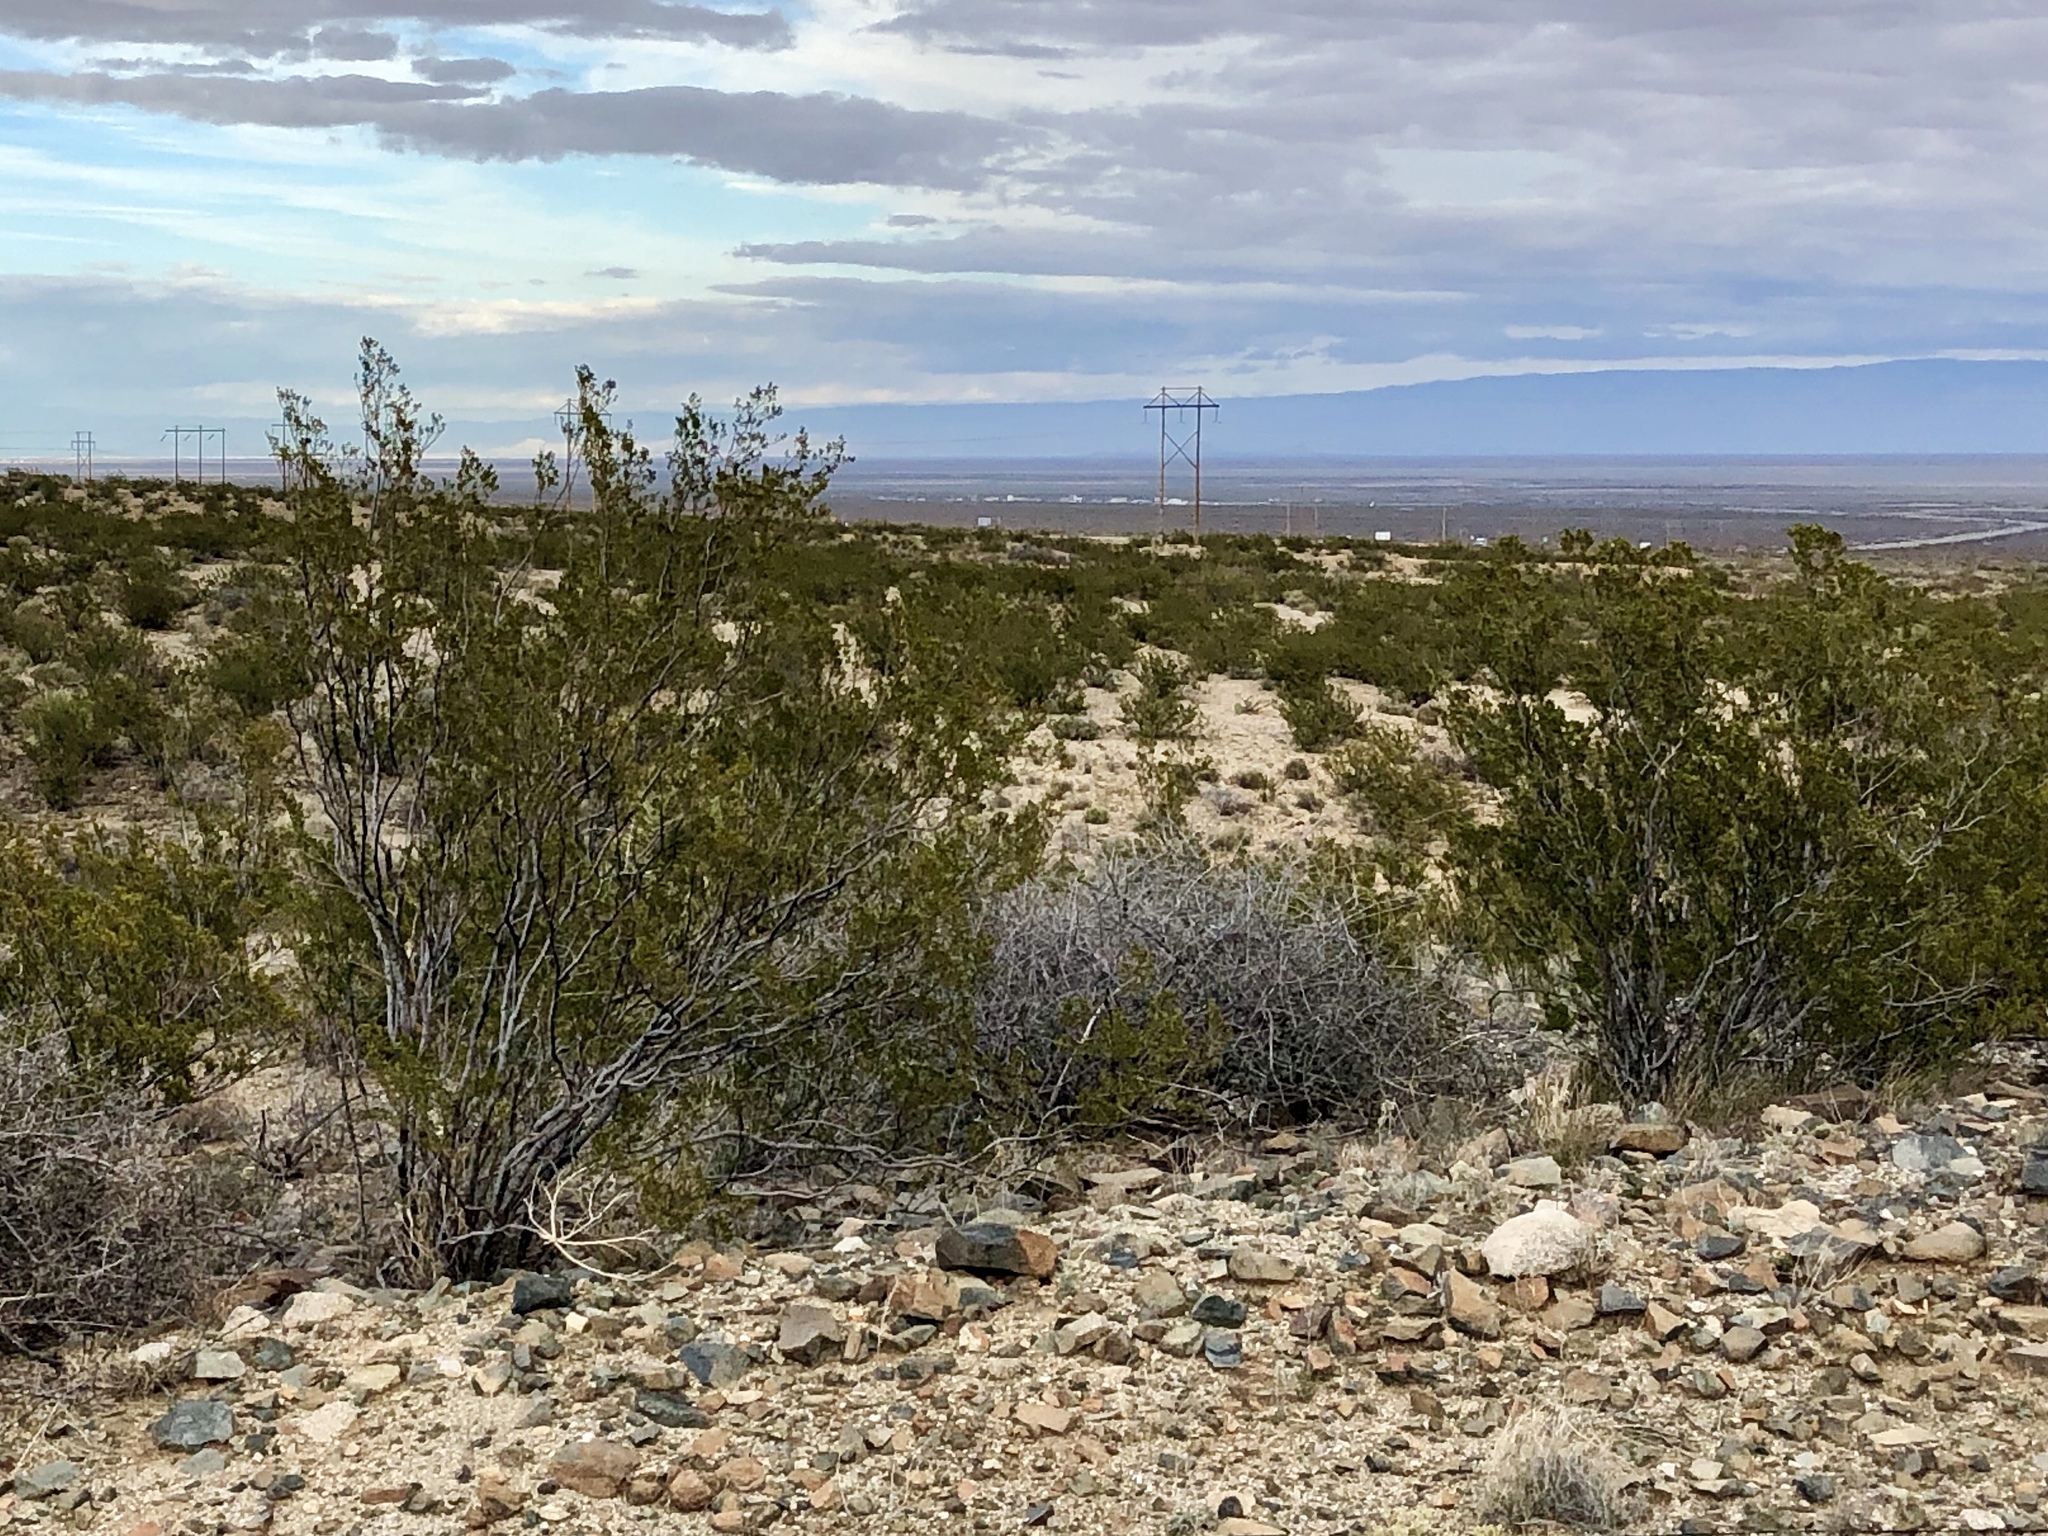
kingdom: Plantae
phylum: Tracheophyta
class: Magnoliopsida
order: Zygophyllales
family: Zygophyllaceae
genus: Larrea
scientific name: Larrea tridentata
